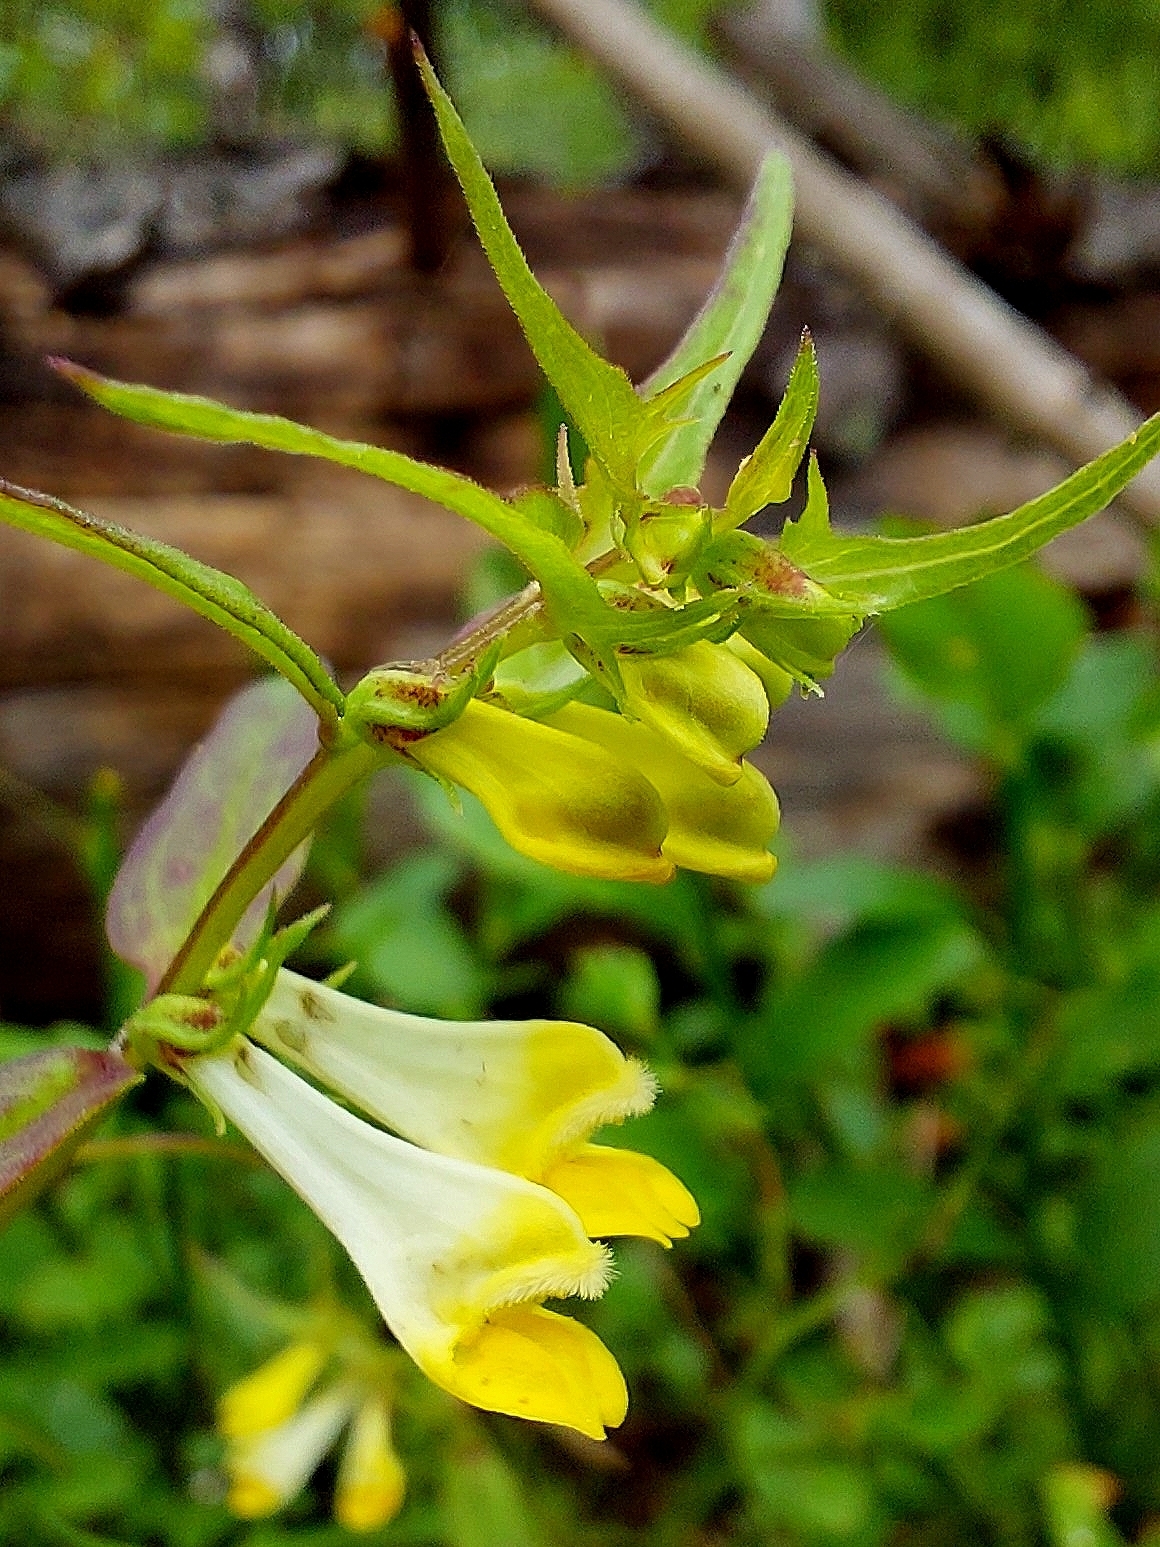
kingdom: Plantae
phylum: Tracheophyta
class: Magnoliopsida
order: Lamiales
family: Orobanchaceae
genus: Melampyrum
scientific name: Melampyrum pratense
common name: Common cow-wheat
